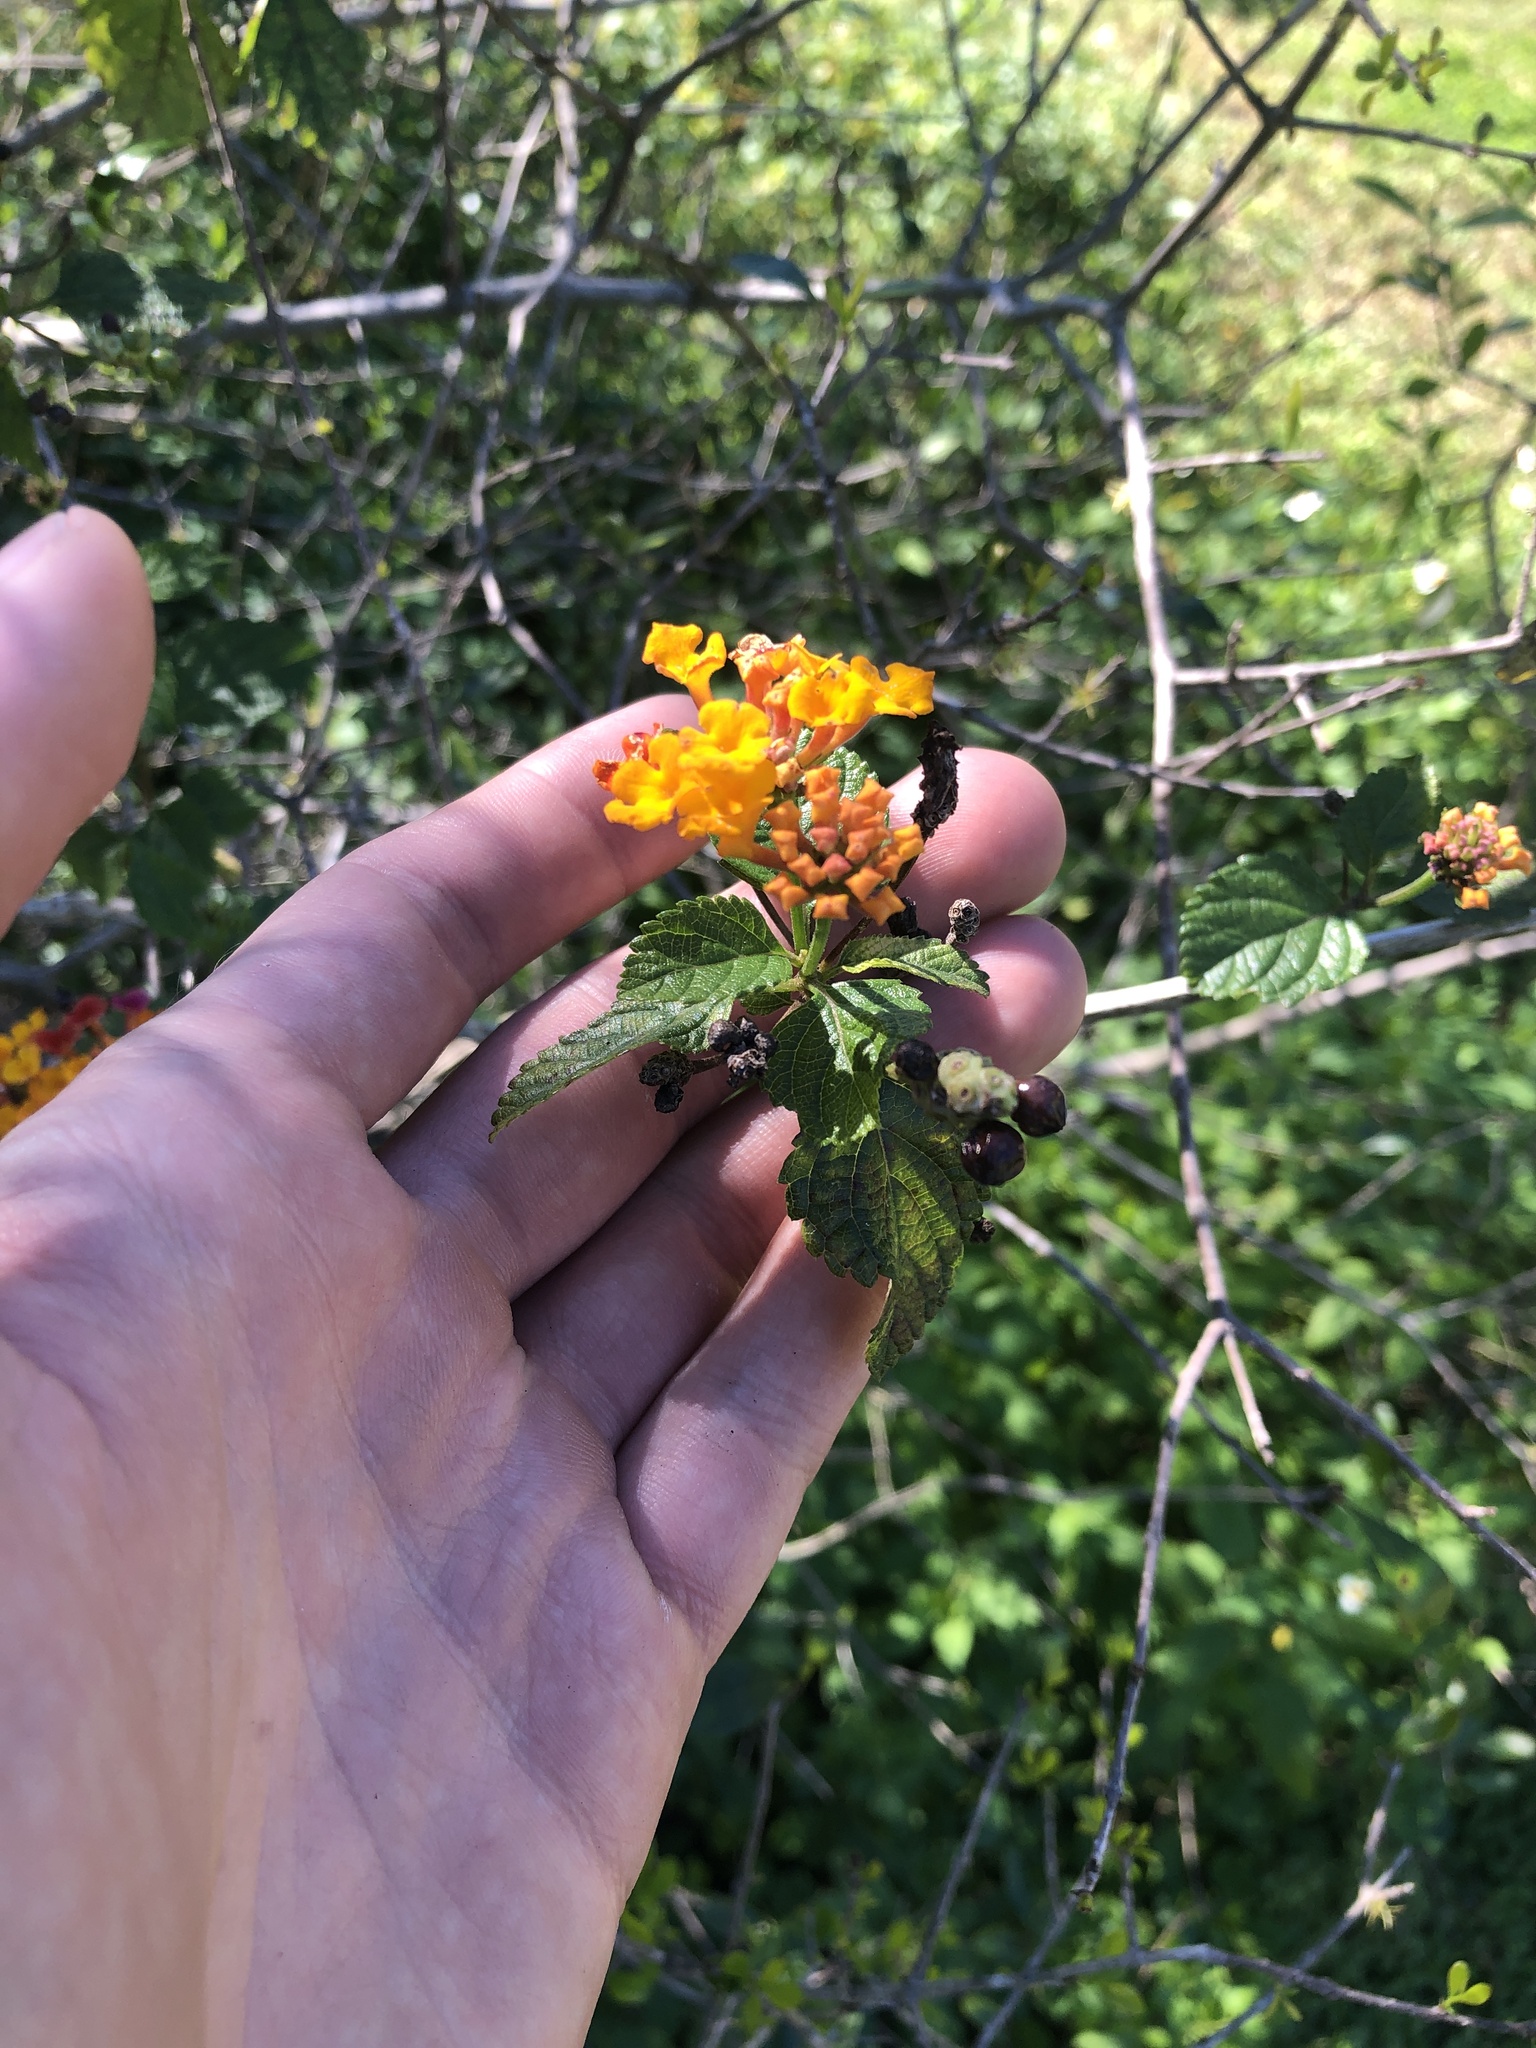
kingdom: Plantae
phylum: Tracheophyta
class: Magnoliopsida
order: Lamiales
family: Verbenaceae
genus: Lantana
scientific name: Lantana strigocamara
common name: Lantana
